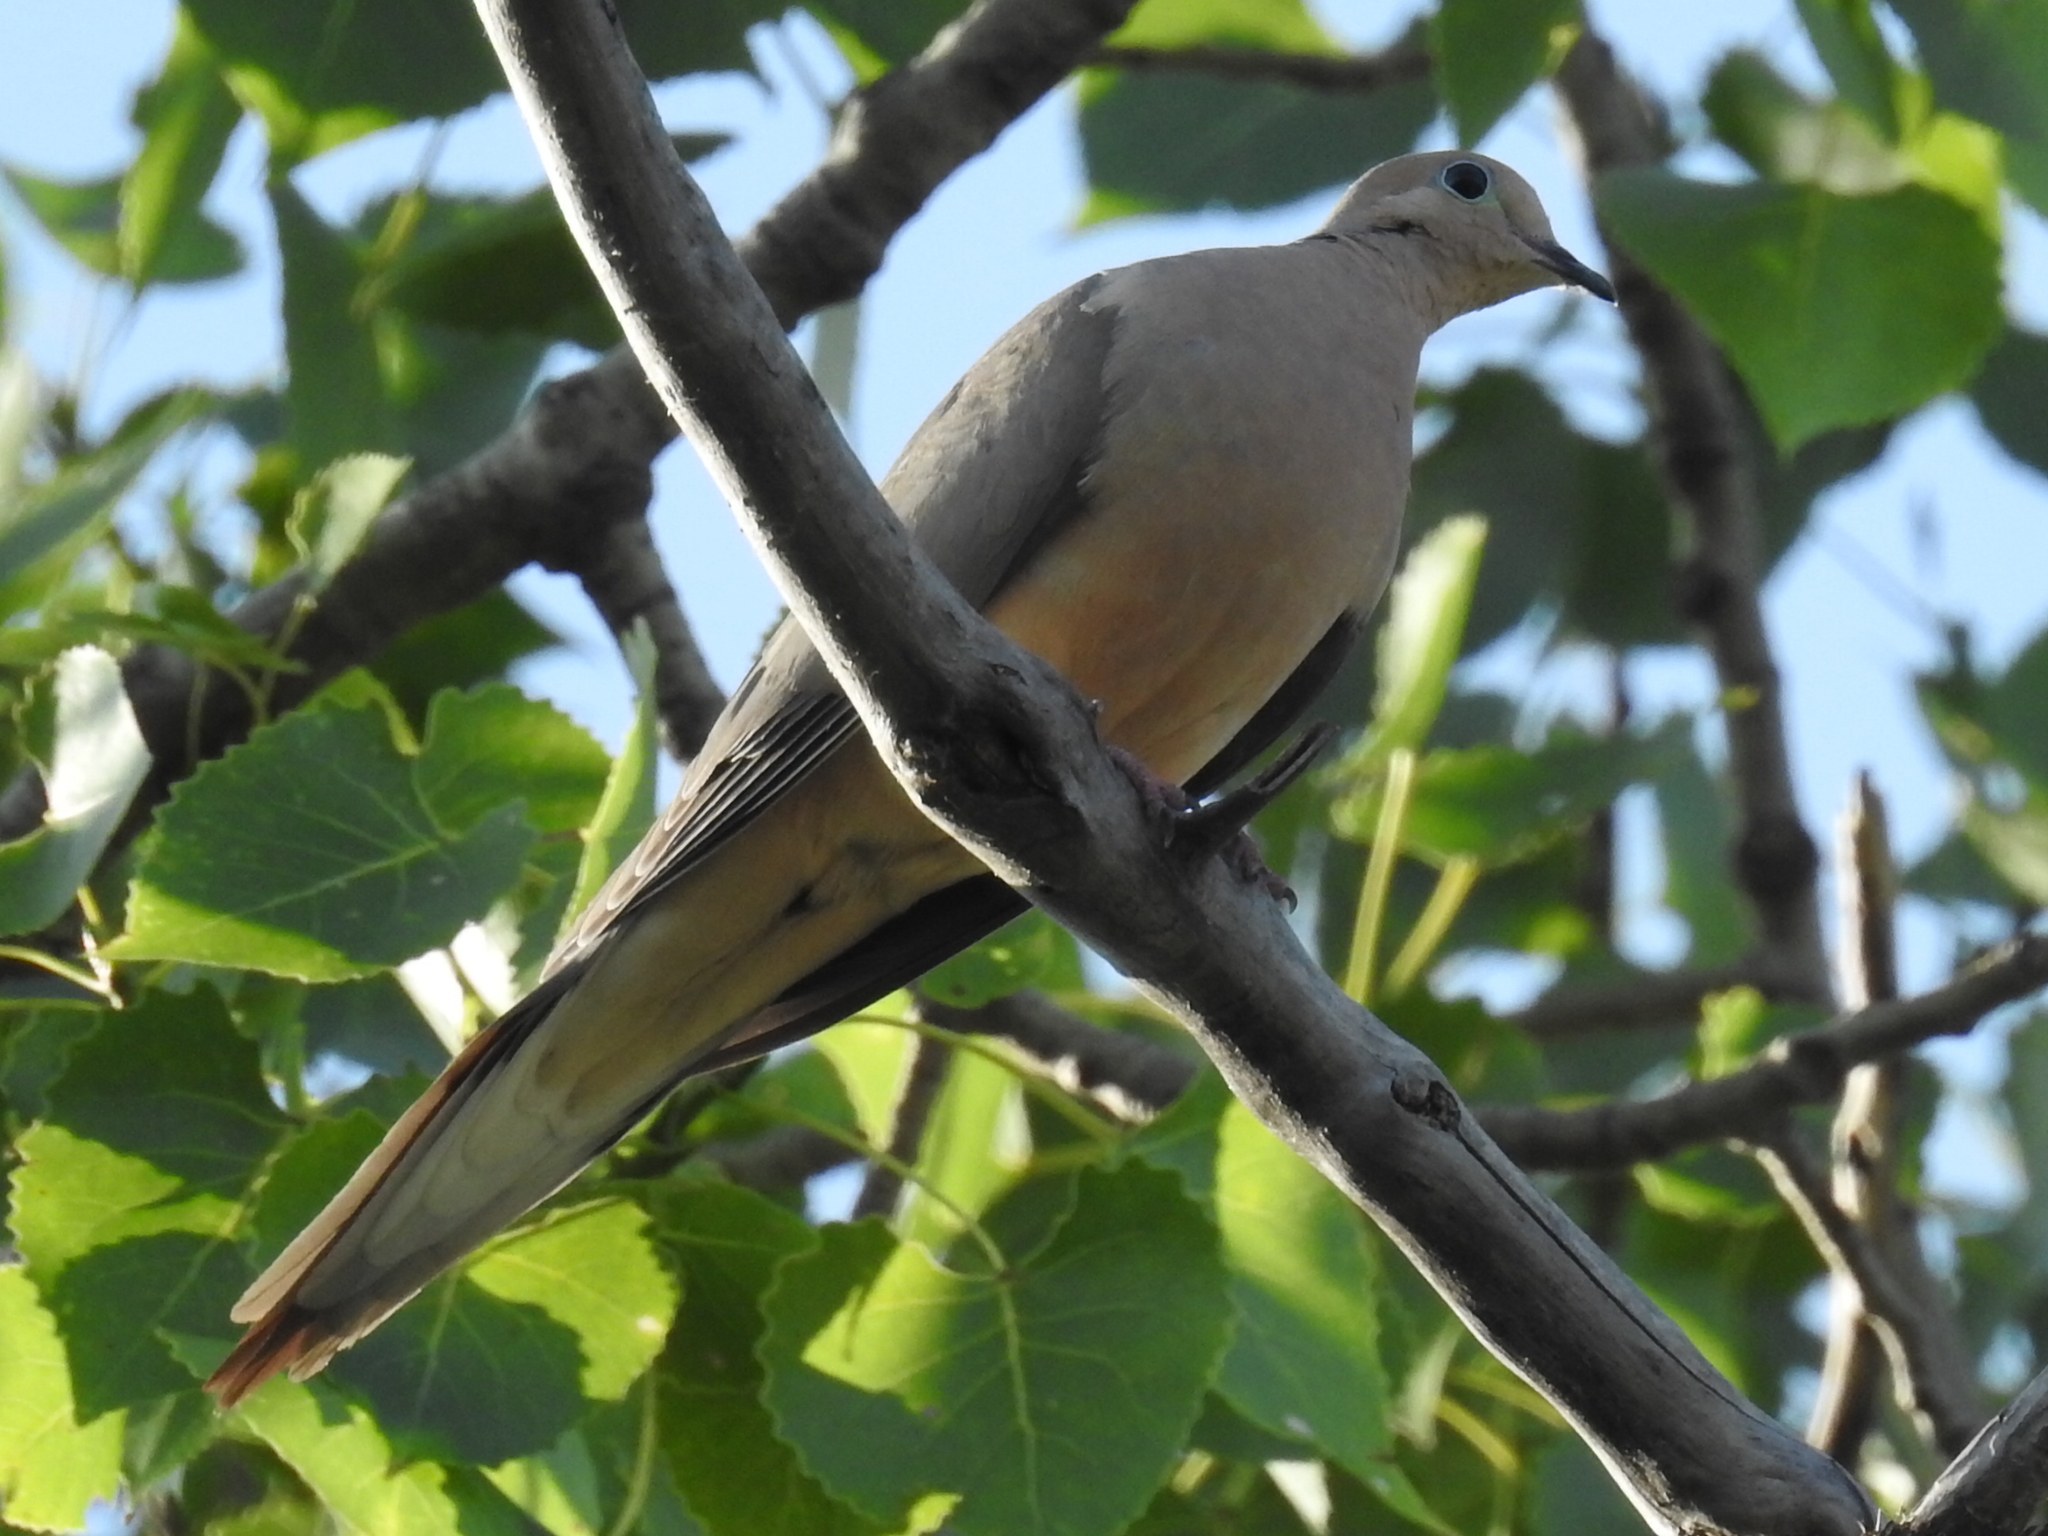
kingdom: Animalia
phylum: Chordata
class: Aves
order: Columbiformes
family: Columbidae
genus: Zenaida
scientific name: Zenaida macroura
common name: Mourning dove
